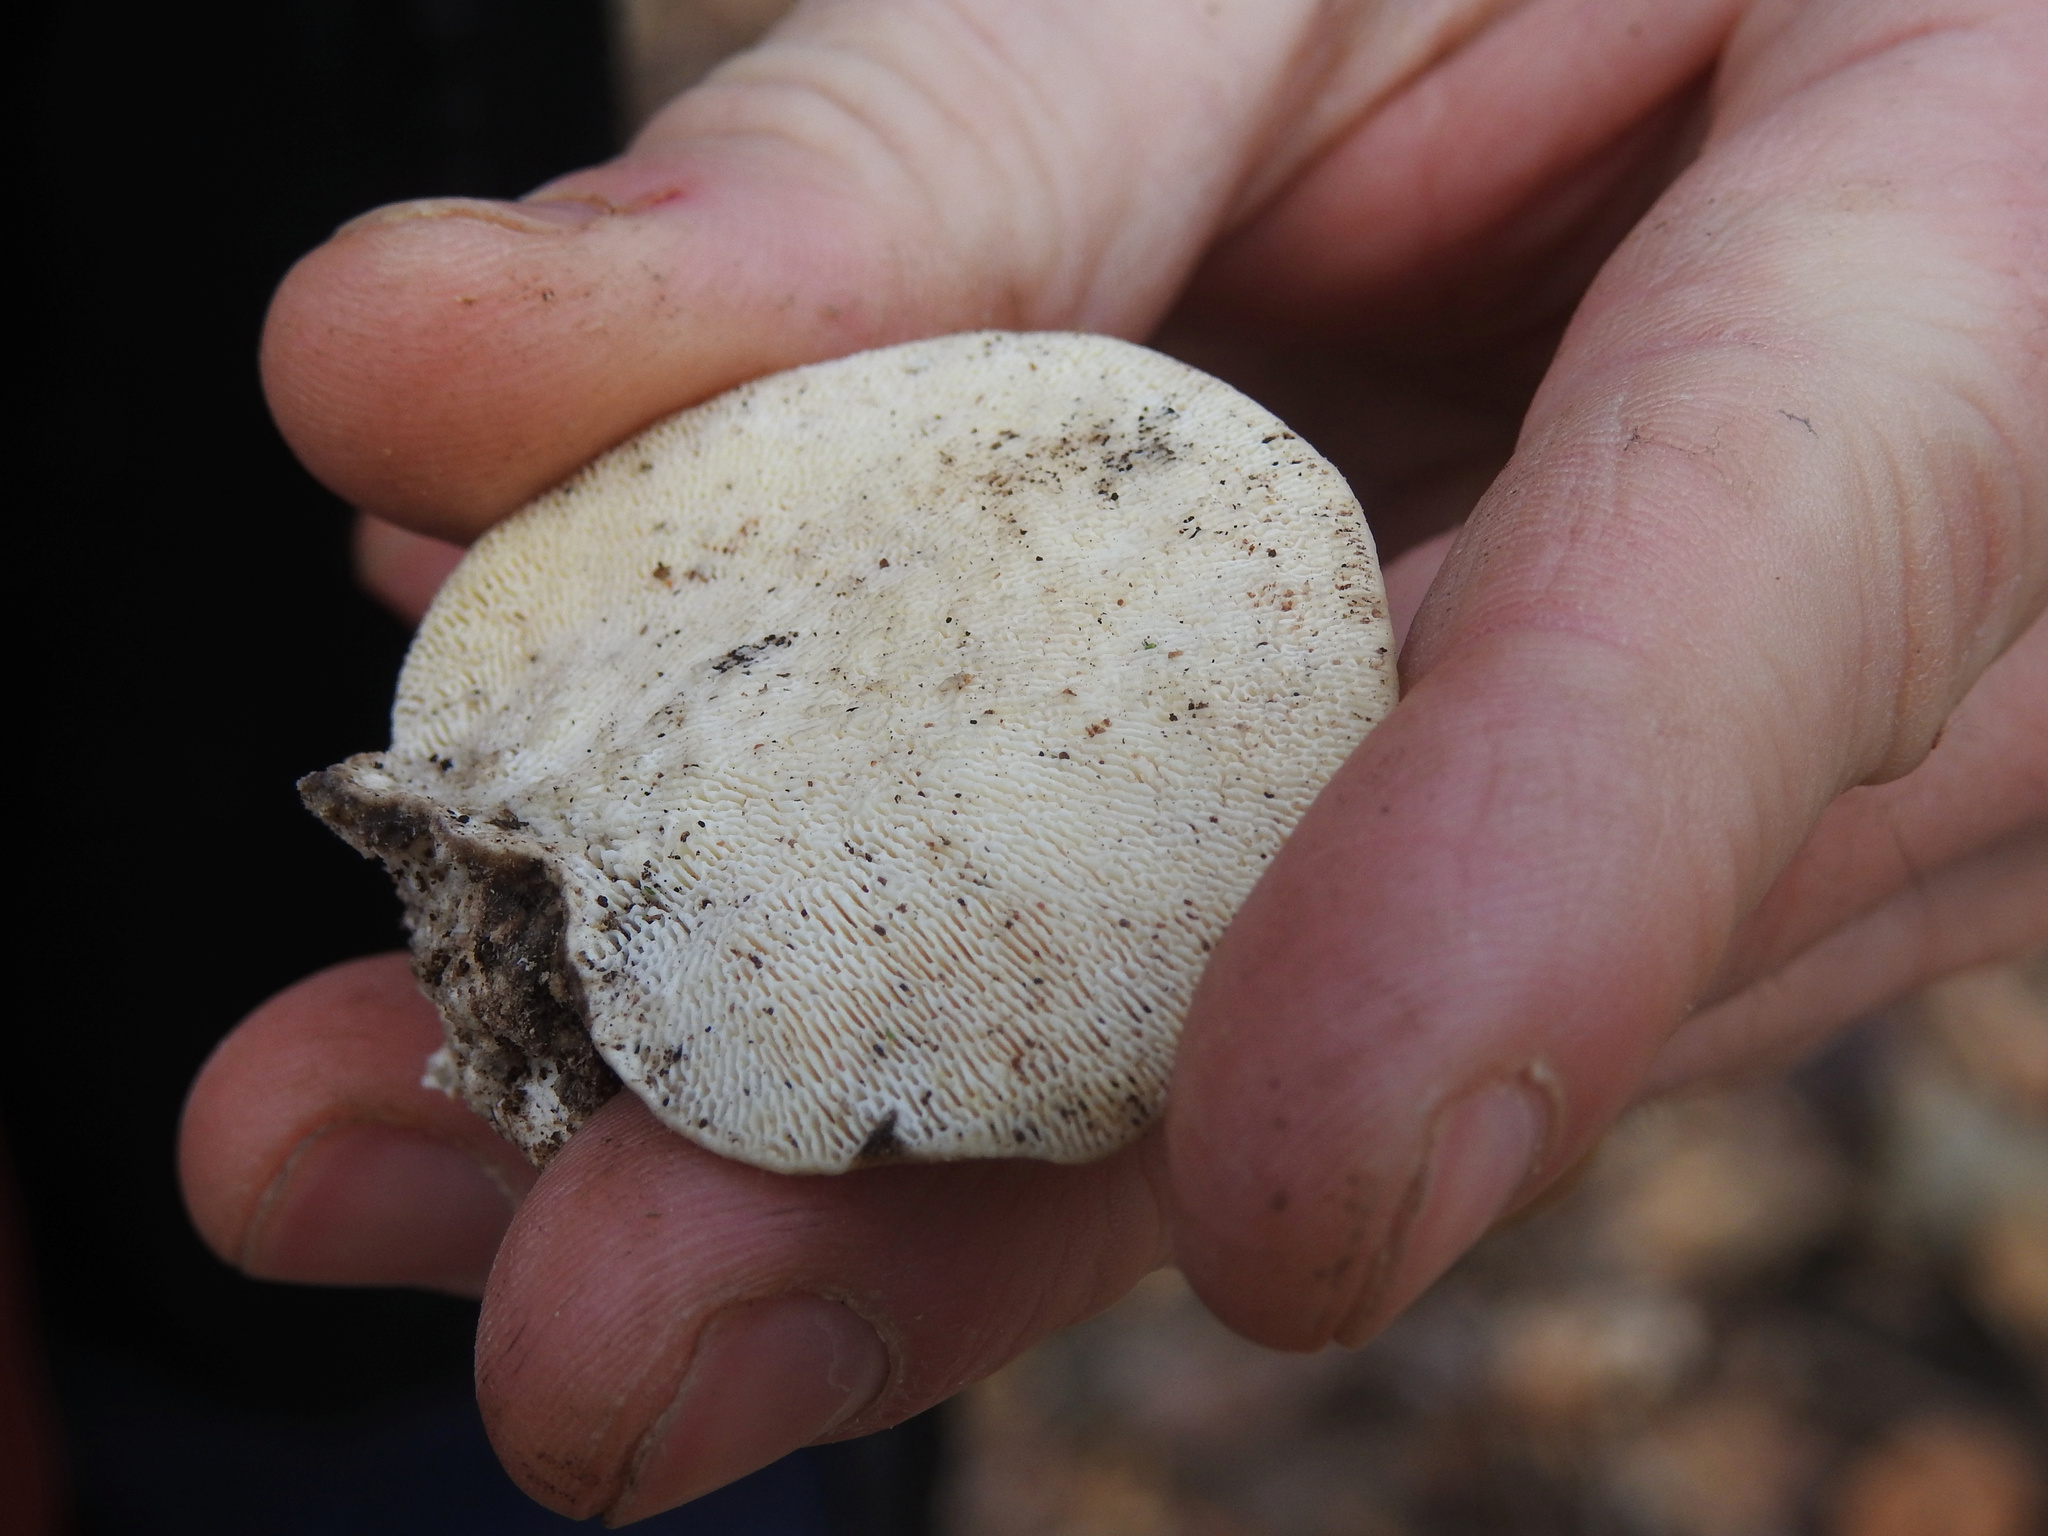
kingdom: Fungi
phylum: Basidiomycota
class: Agaricomycetes
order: Polyporales
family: Polyporaceae
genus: Trametes
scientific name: Trametes gibbosa
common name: Lumpy bracket
